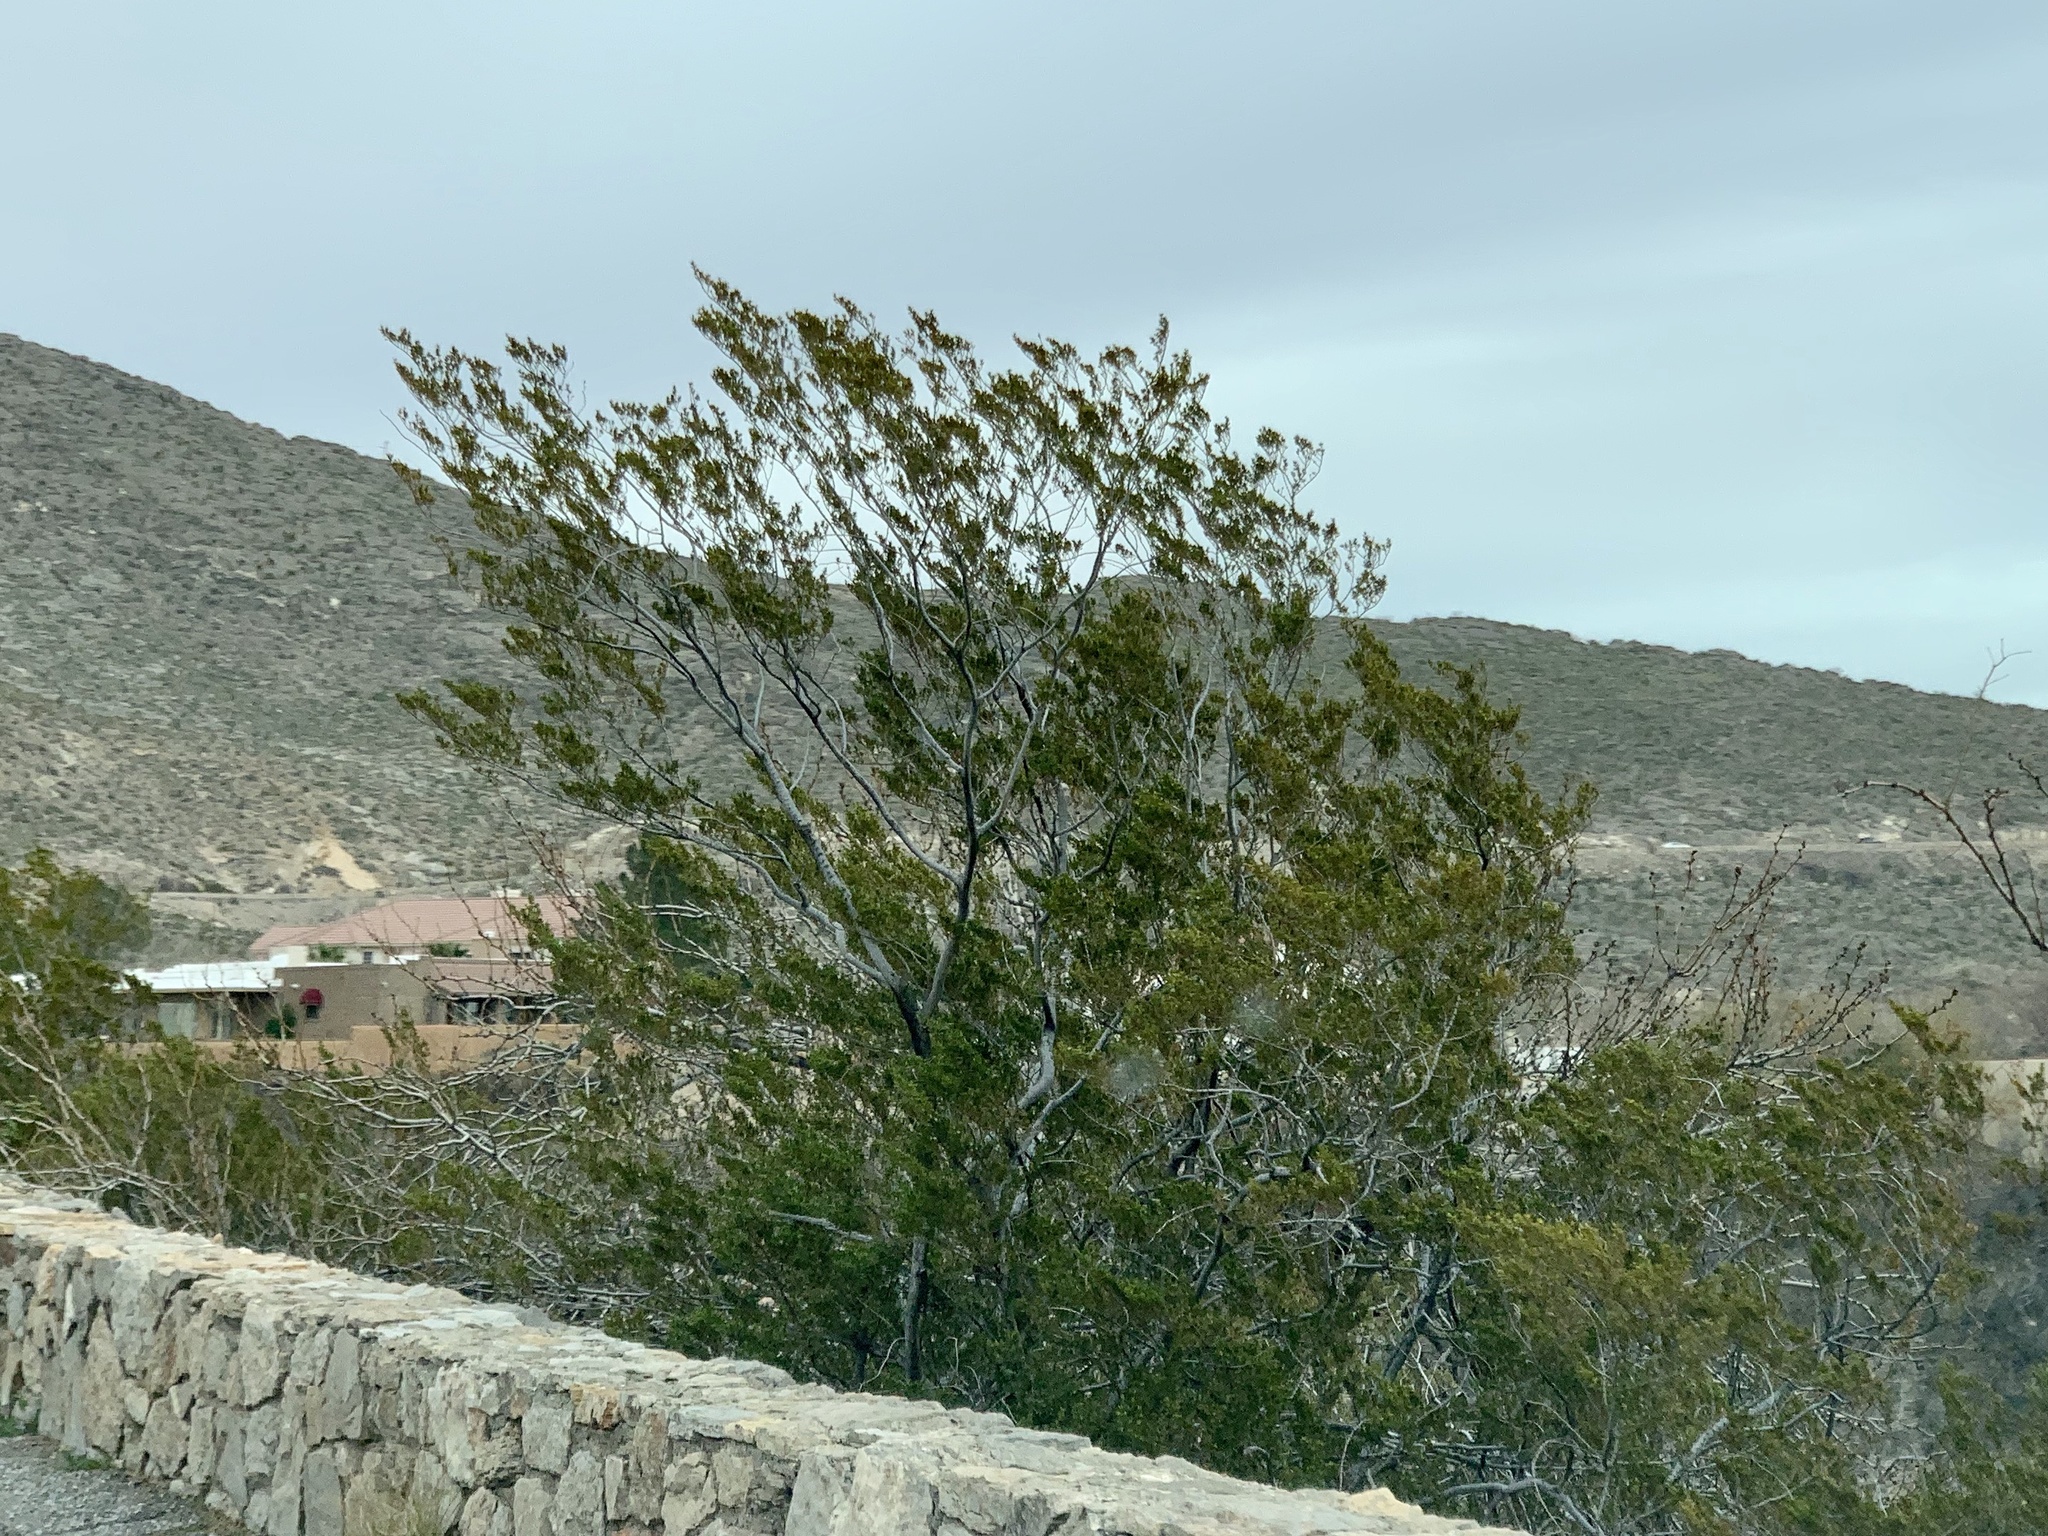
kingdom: Plantae
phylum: Tracheophyta
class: Magnoliopsida
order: Zygophyllales
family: Zygophyllaceae
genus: Larrea
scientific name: Larrea tridentata
